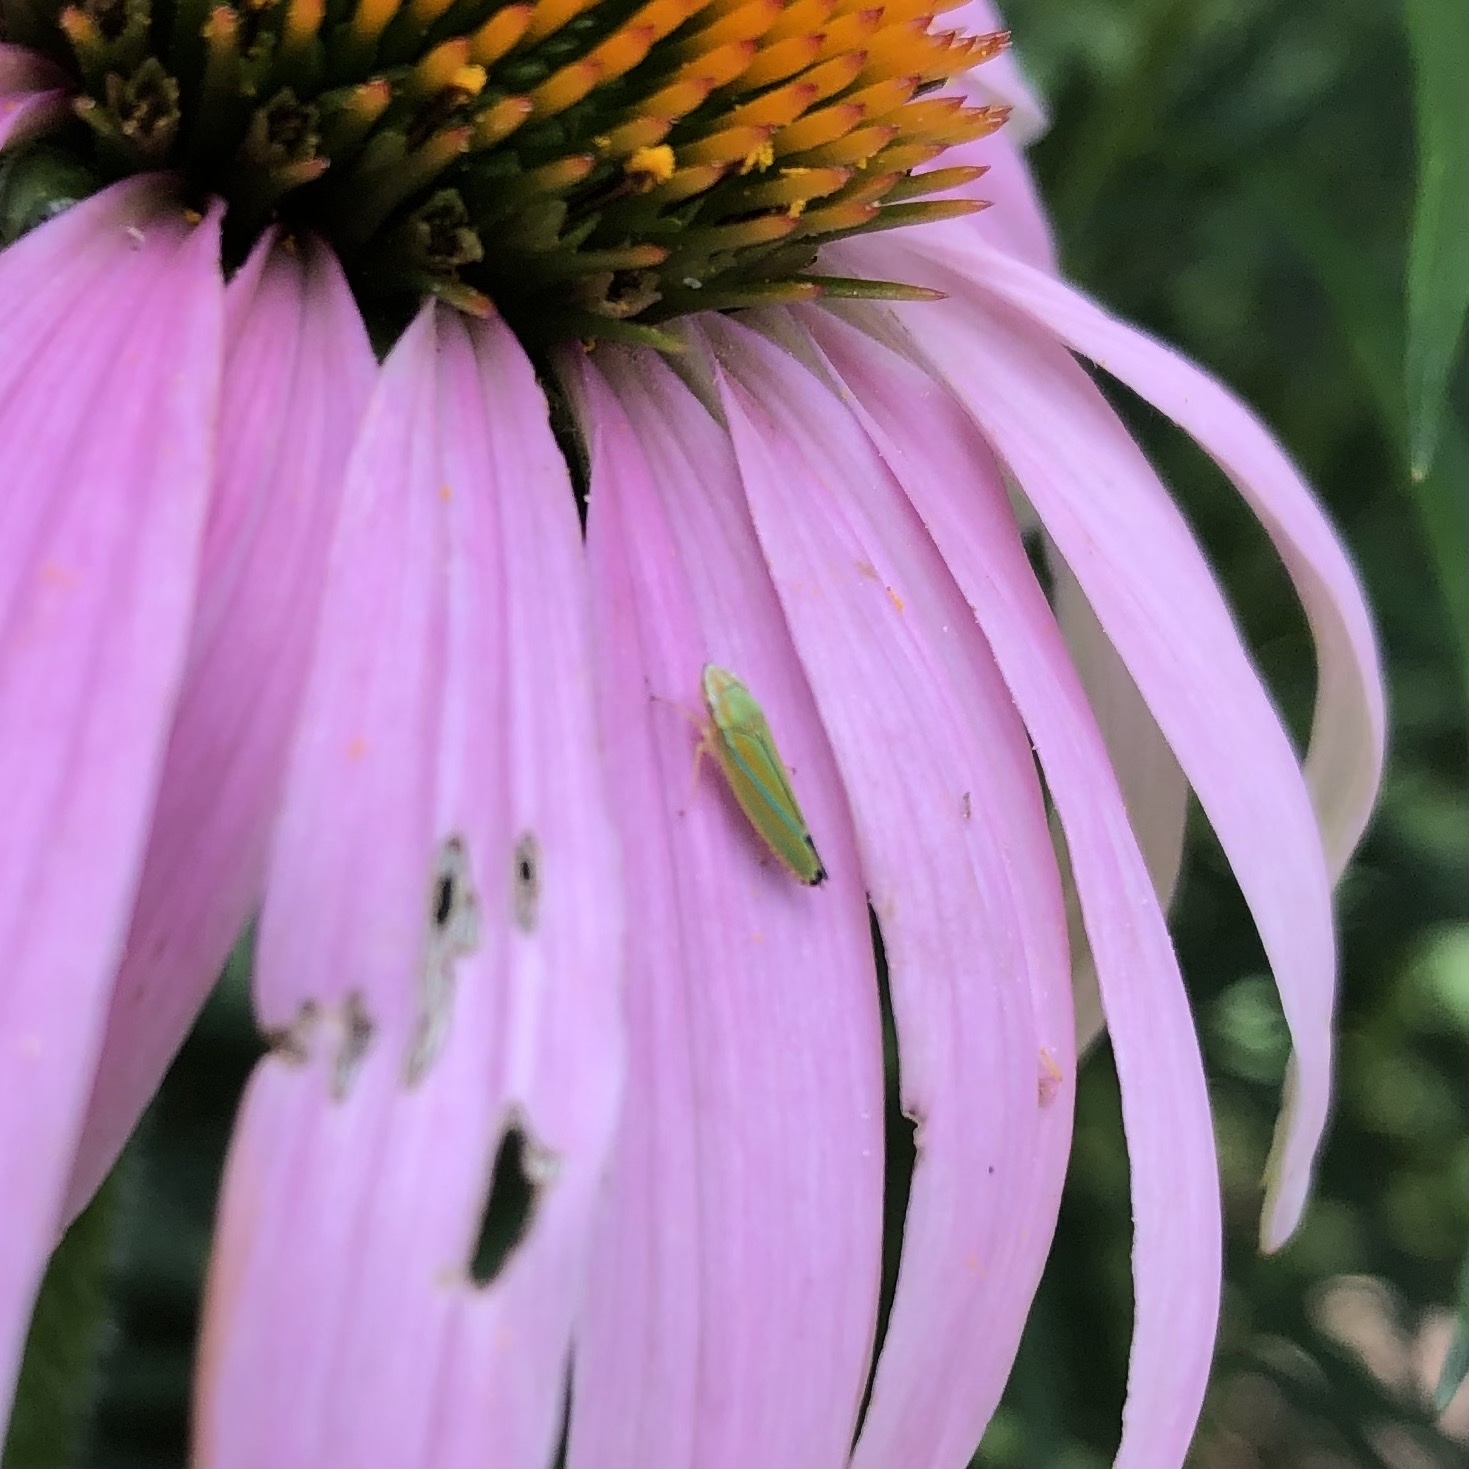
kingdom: Animalia
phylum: Arthropoda
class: Insecta
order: Hemiptera
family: Cicadellidae
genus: Graphocephala
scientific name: Graphocephala versuta
